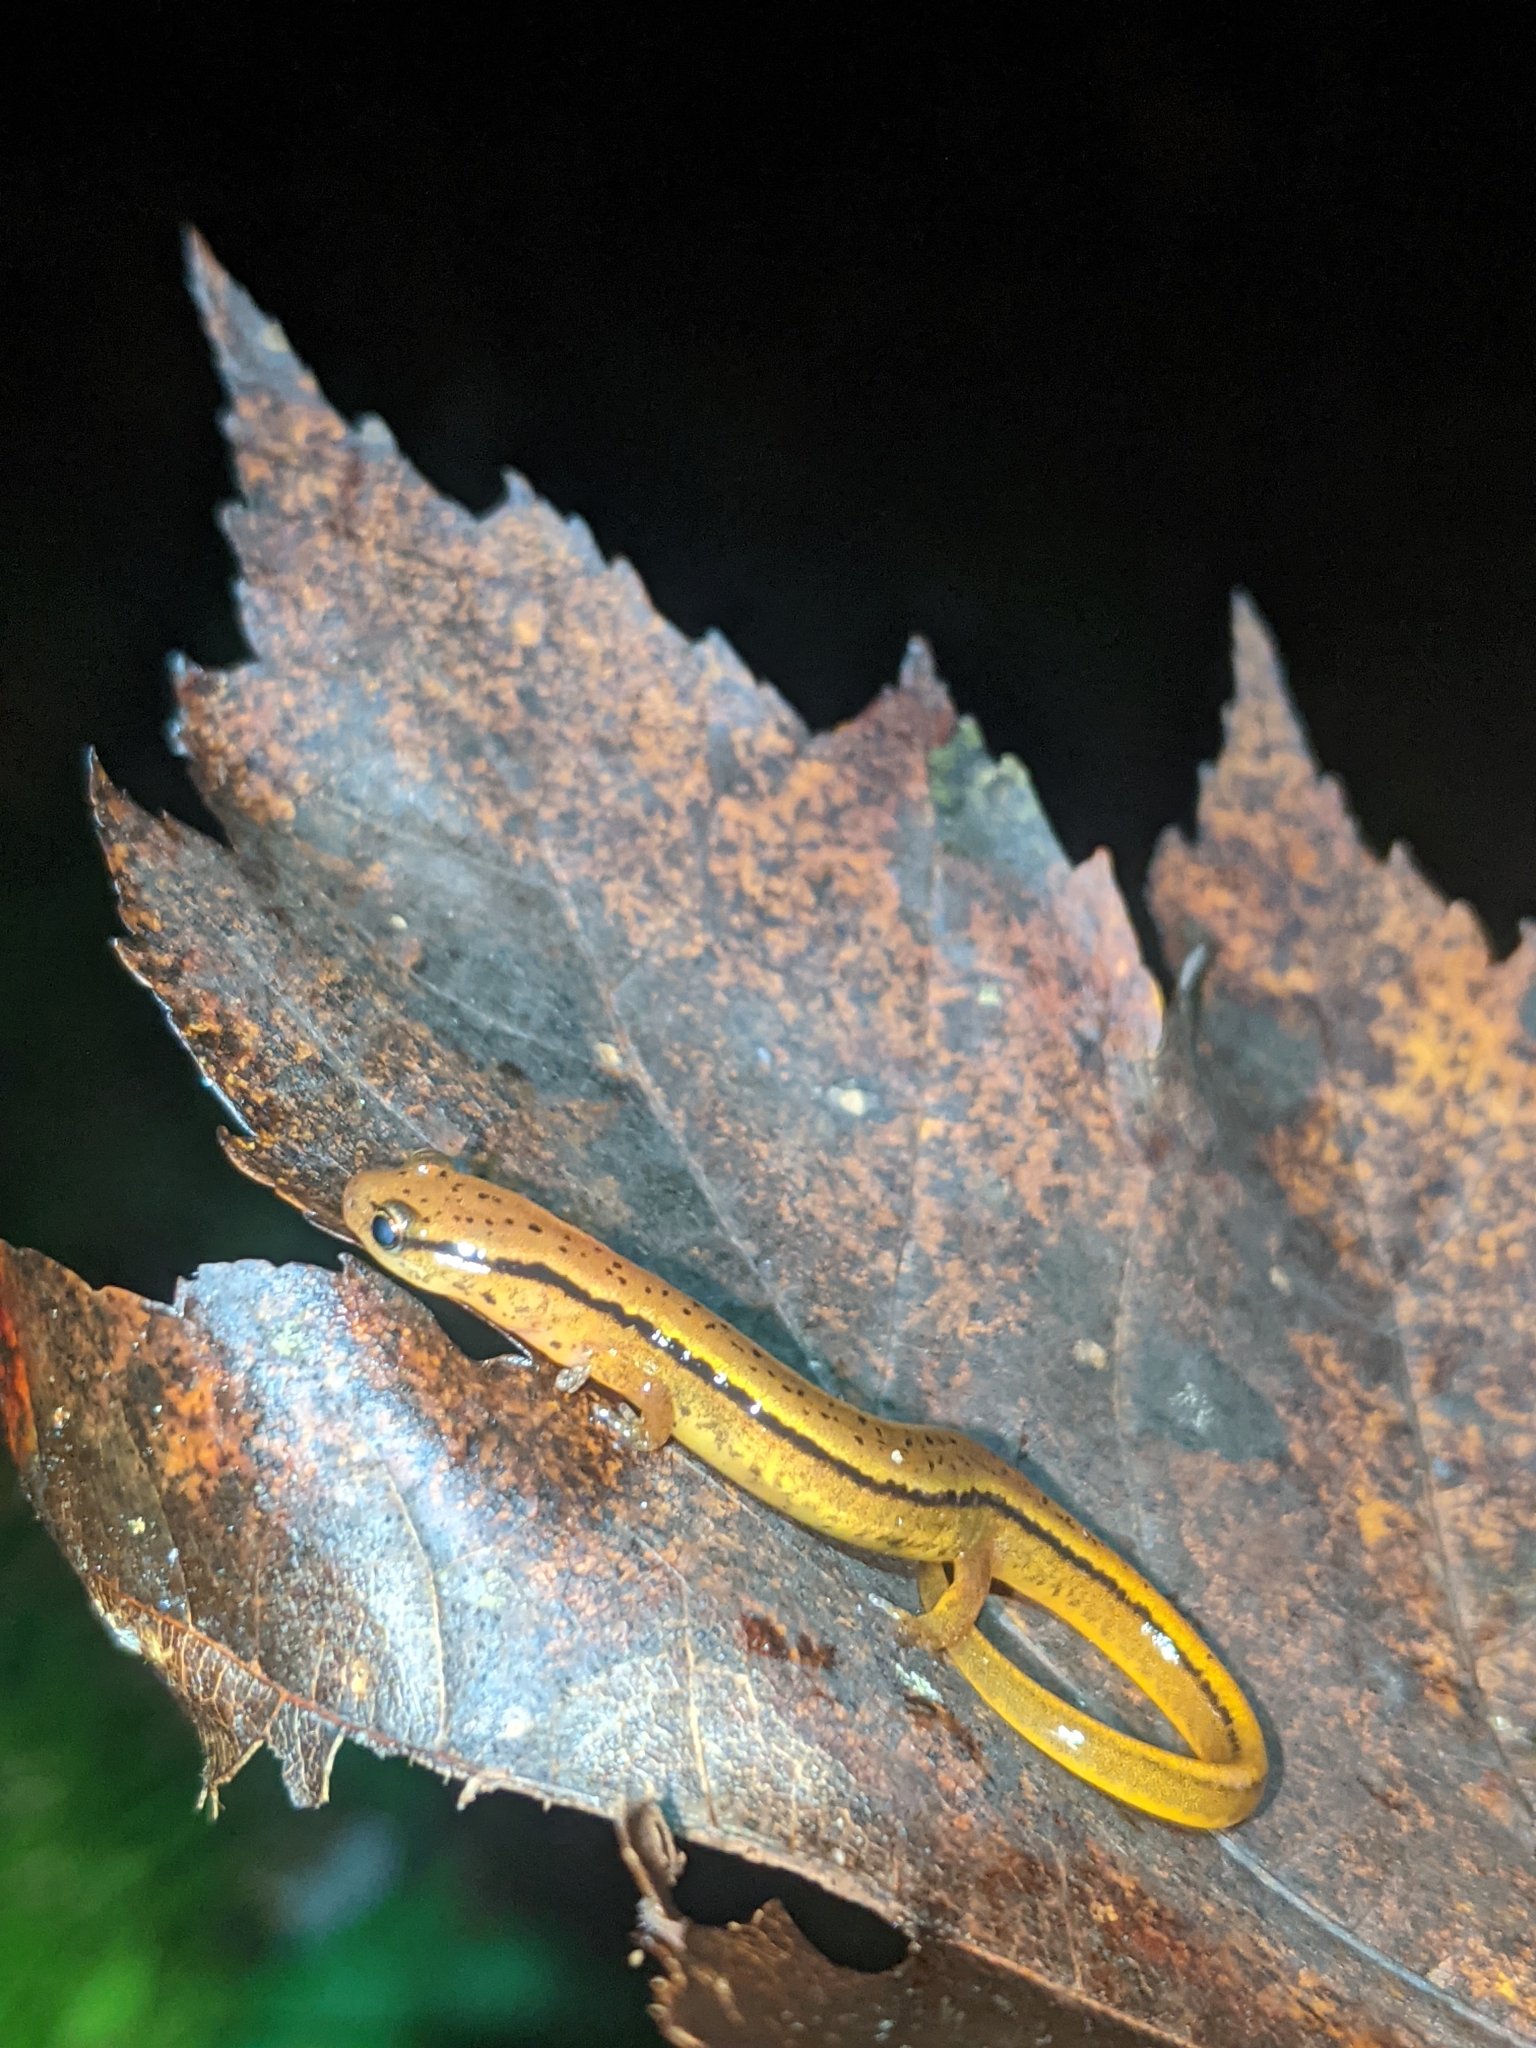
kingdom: Animalia
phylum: Chordata
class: Amphibia
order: Caudata
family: Plethodontidae
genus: Eurycea
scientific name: Eurycea wilderae
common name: Blue ridge two-lined salamander
